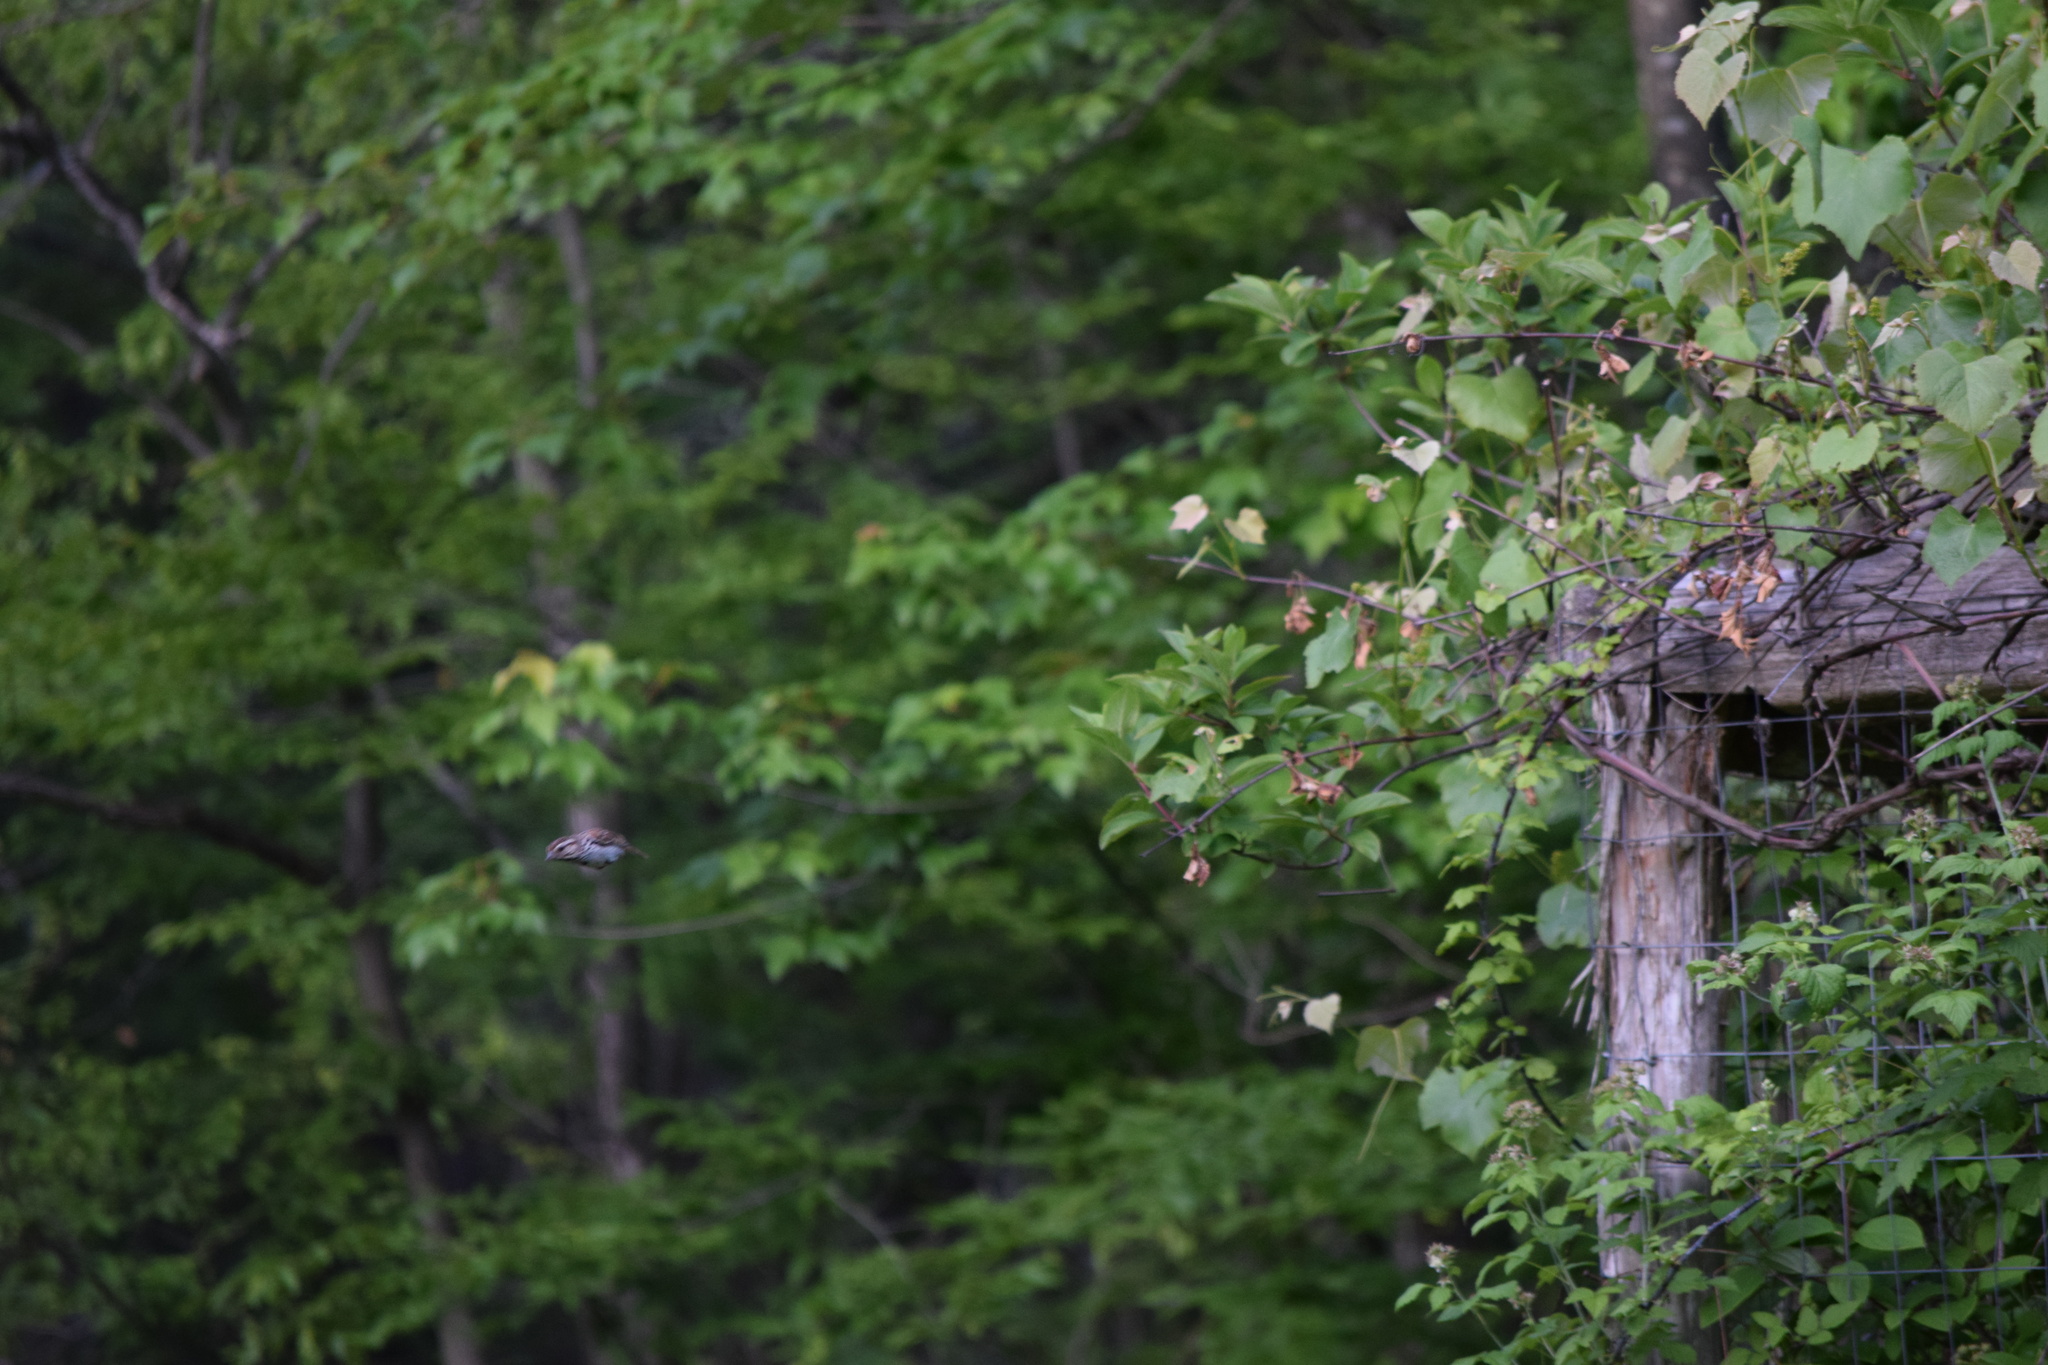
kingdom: Animalia
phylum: Chordata
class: Aves
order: Passeriformes
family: Passerellidae
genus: Melospiza
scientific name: Melospiza melodia
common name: Song sparrow
